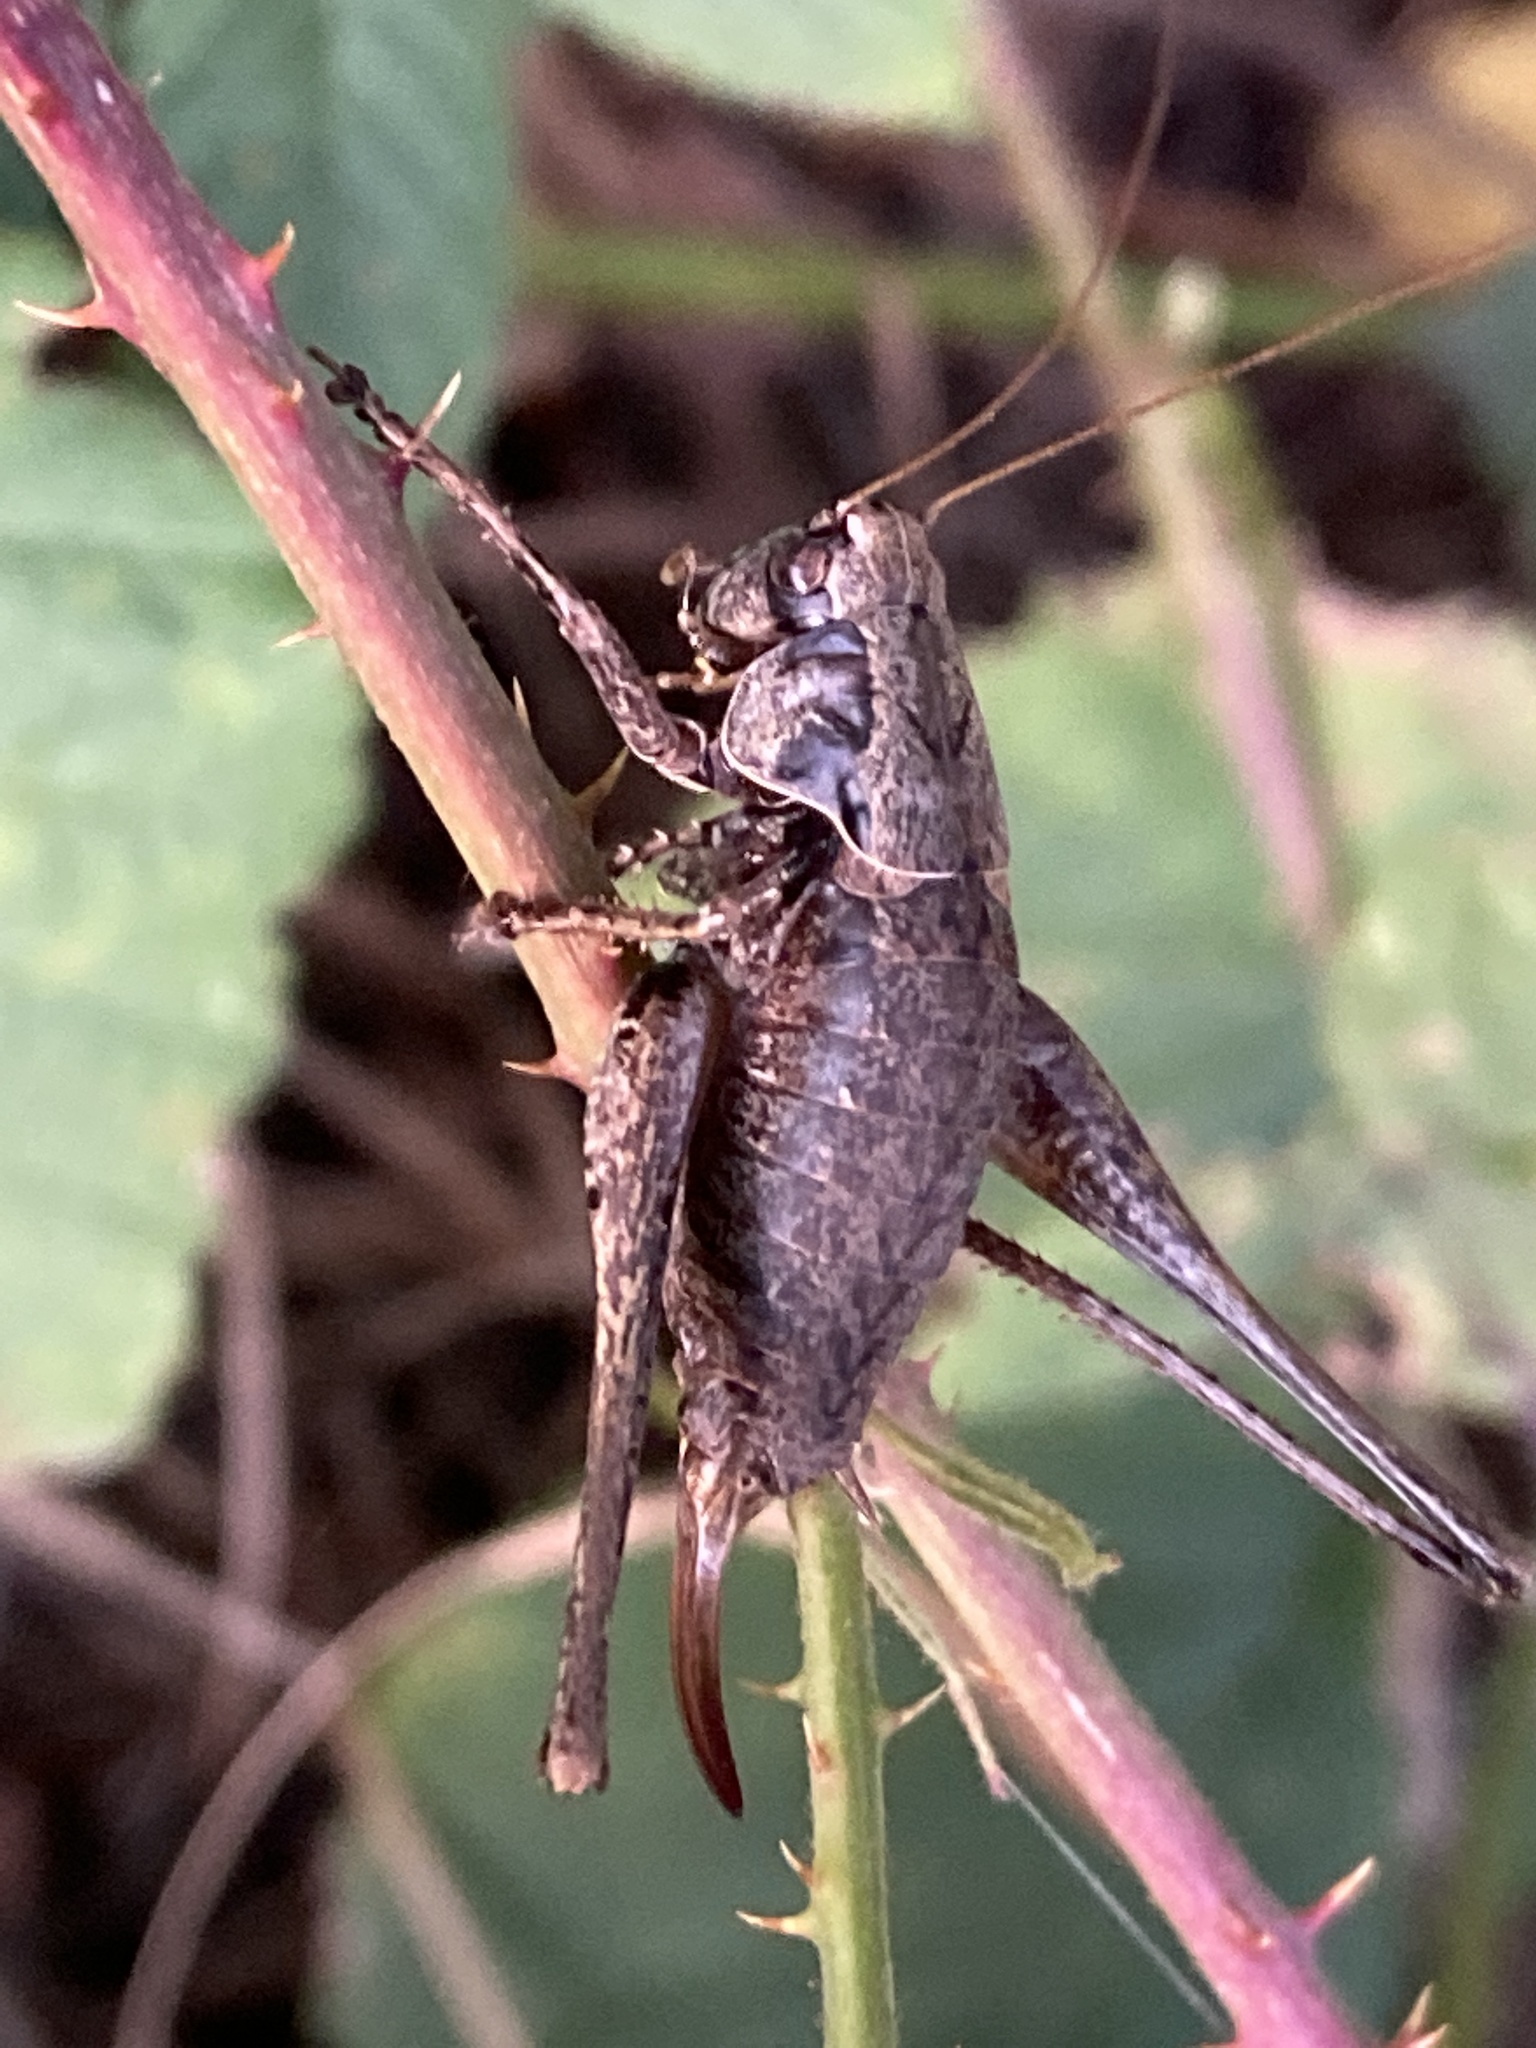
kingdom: Animalia
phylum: Arthropoda
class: Insecta
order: Orthoptera
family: Tettigoniidae
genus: Pholidoptera
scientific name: Pholidoptera griseoaptera
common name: Dark bush-cricket
